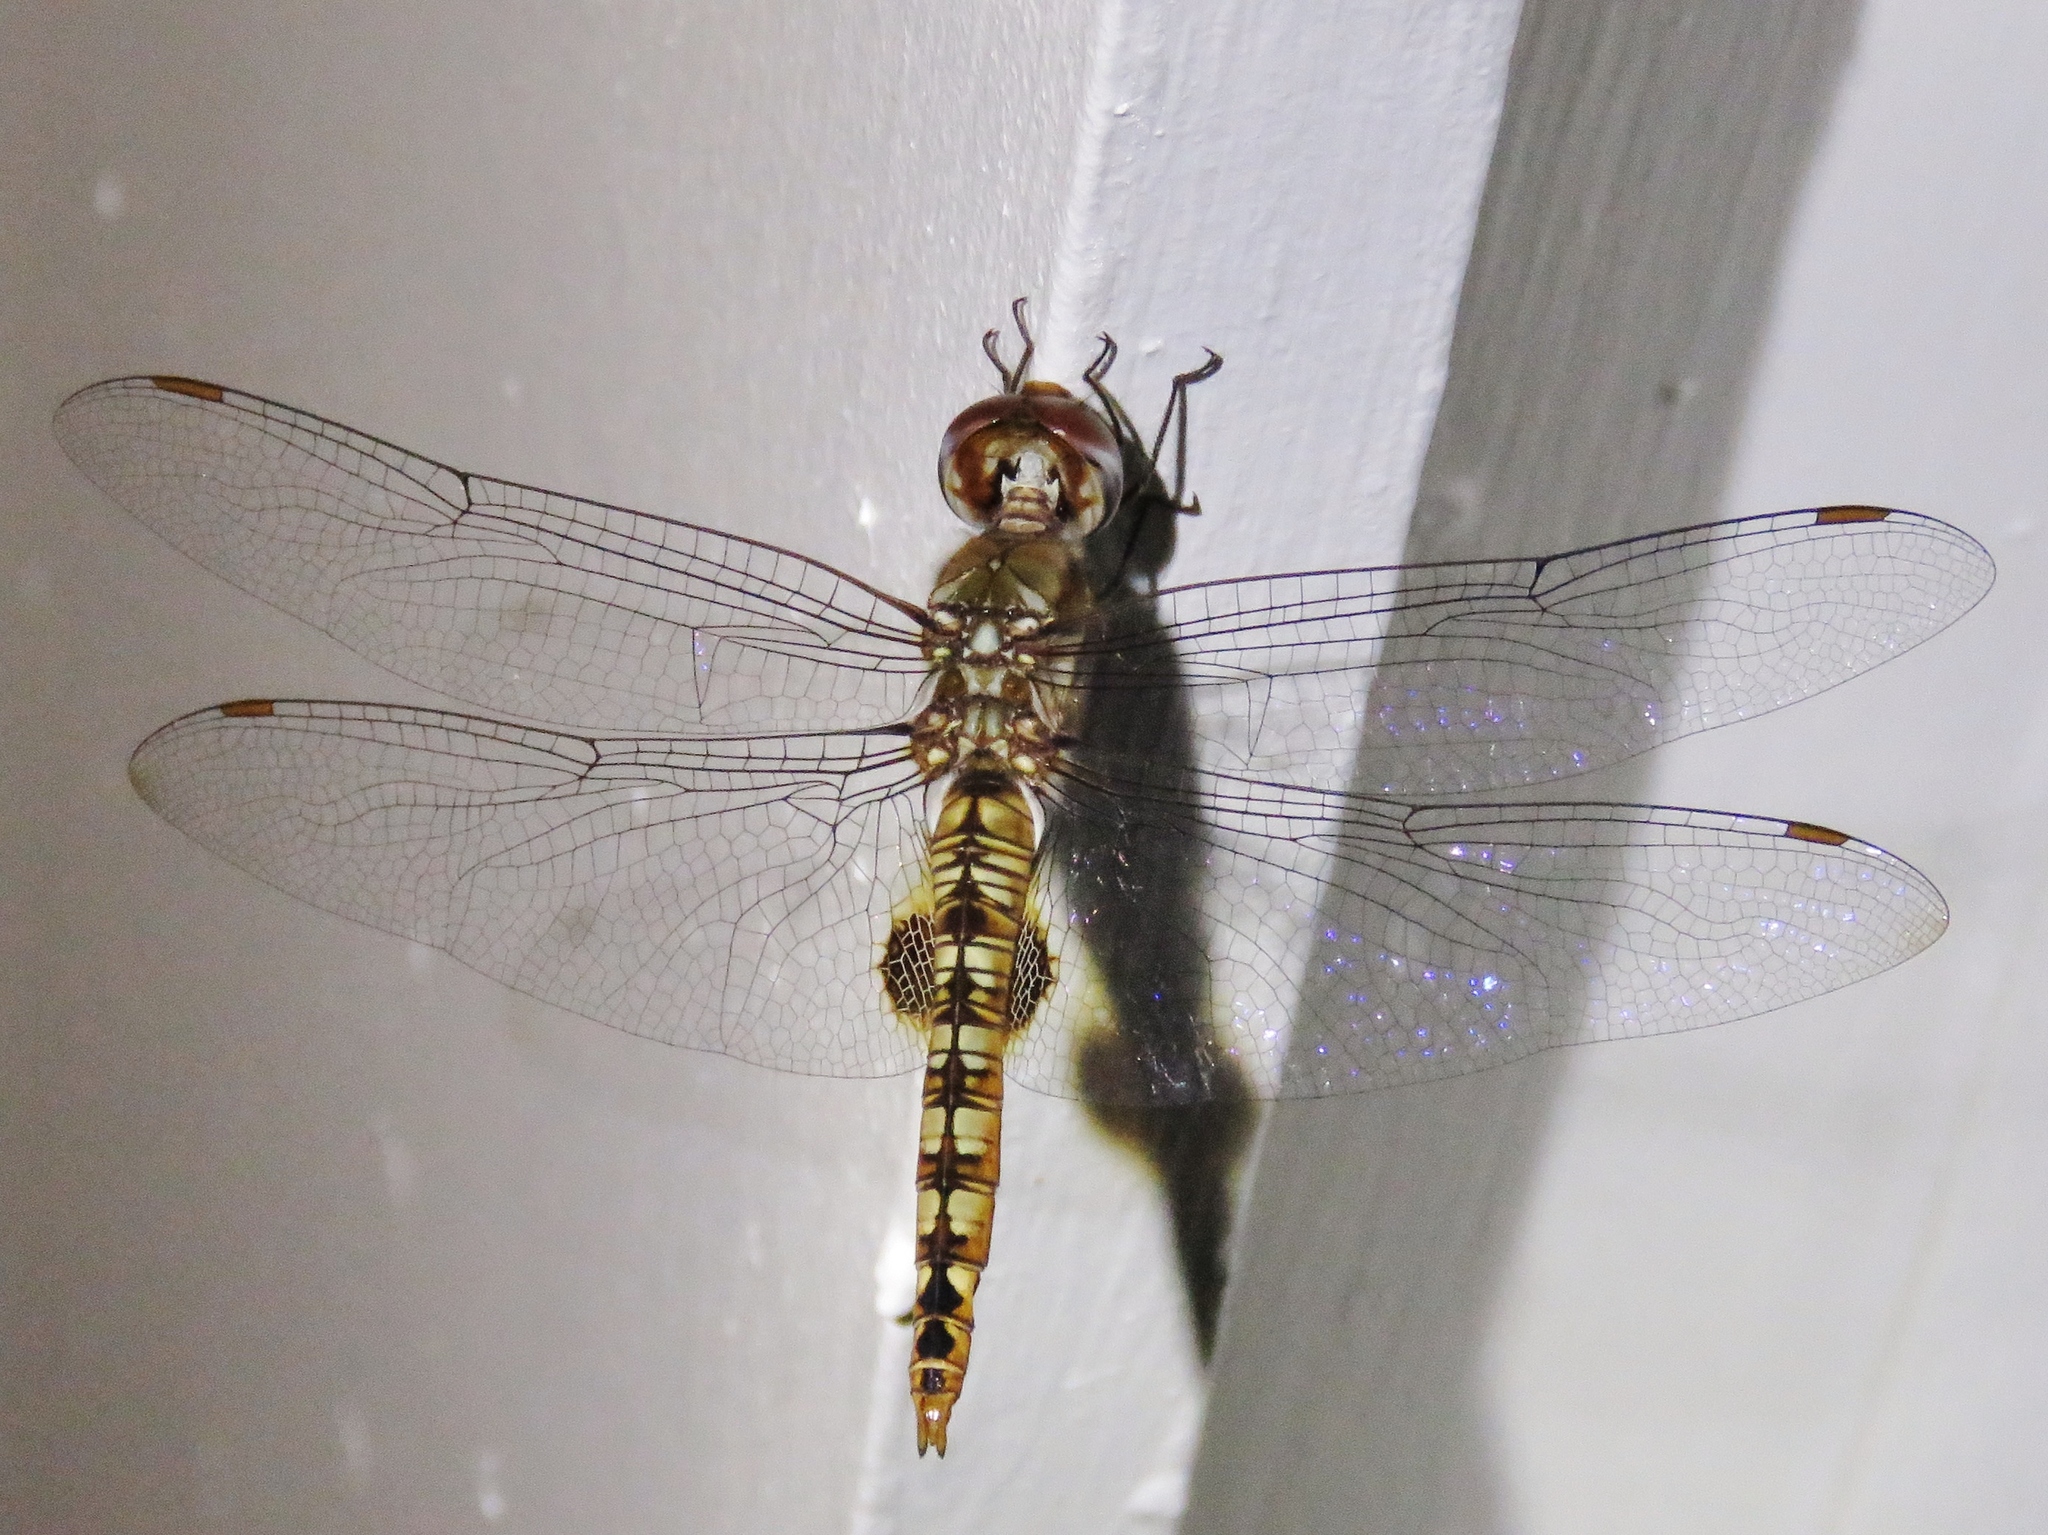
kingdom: Animalia
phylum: Arthropoda
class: Insecta
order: Odonata
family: Libellulidae
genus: Pantala
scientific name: Pantala hymenaea
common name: Spot-winged glider
